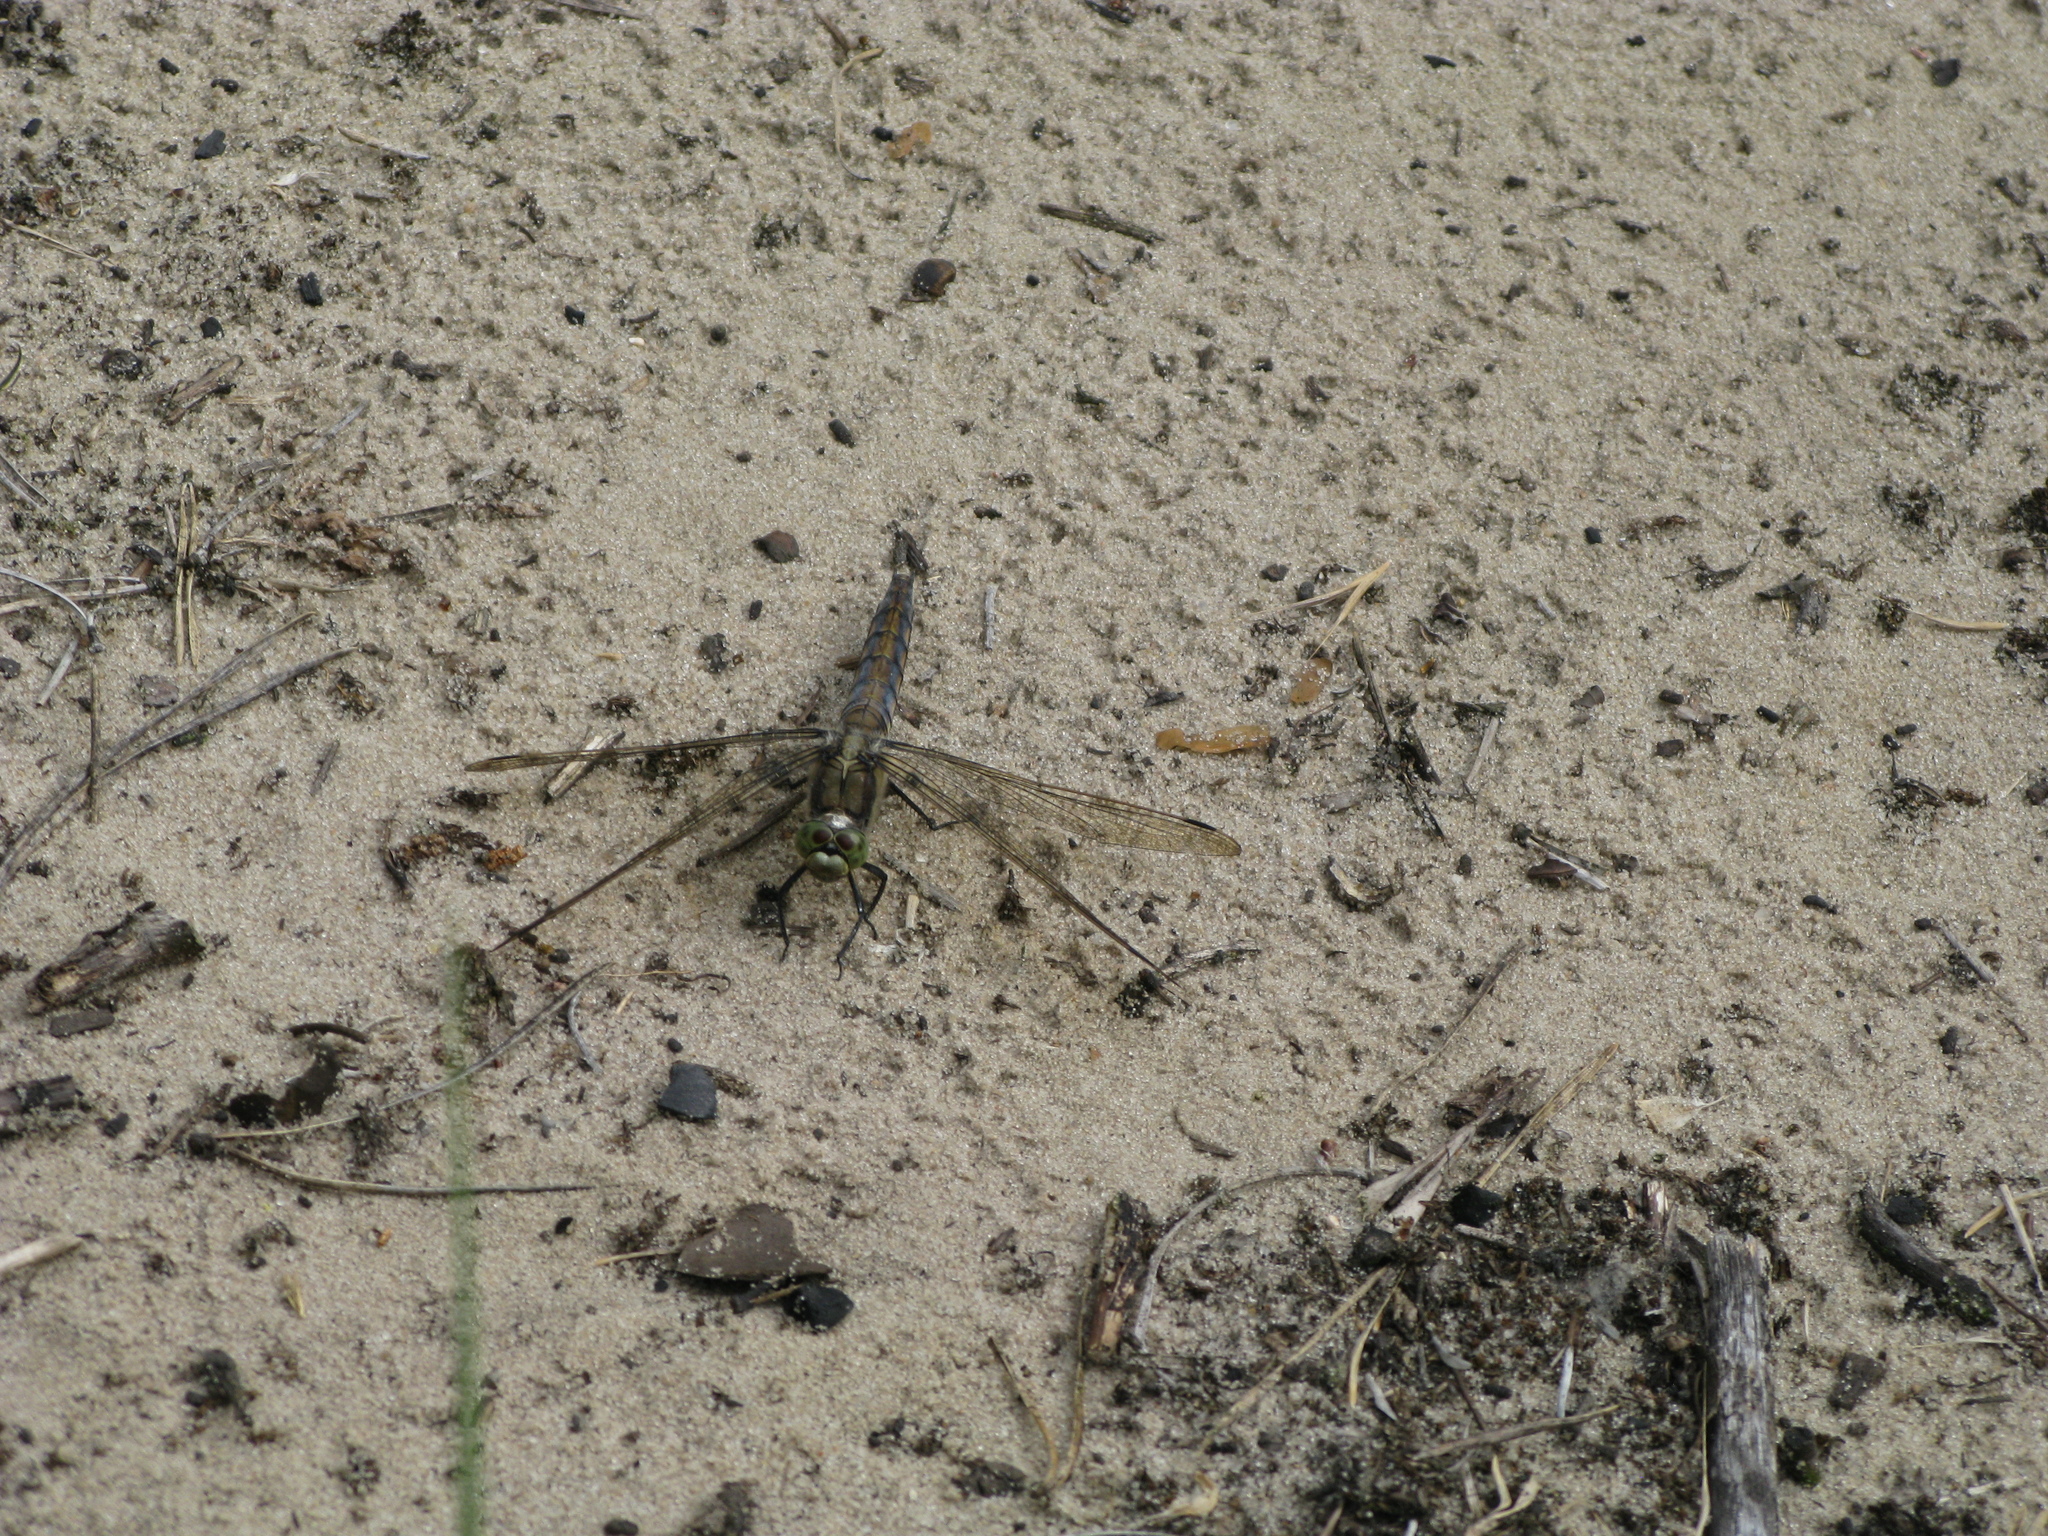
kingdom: Animalia
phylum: Arthropoda
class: Insecta
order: Odonata
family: Libellulidae
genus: Orthetrum
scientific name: Orthetrum cancellatum
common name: Black-tailed skimmer
